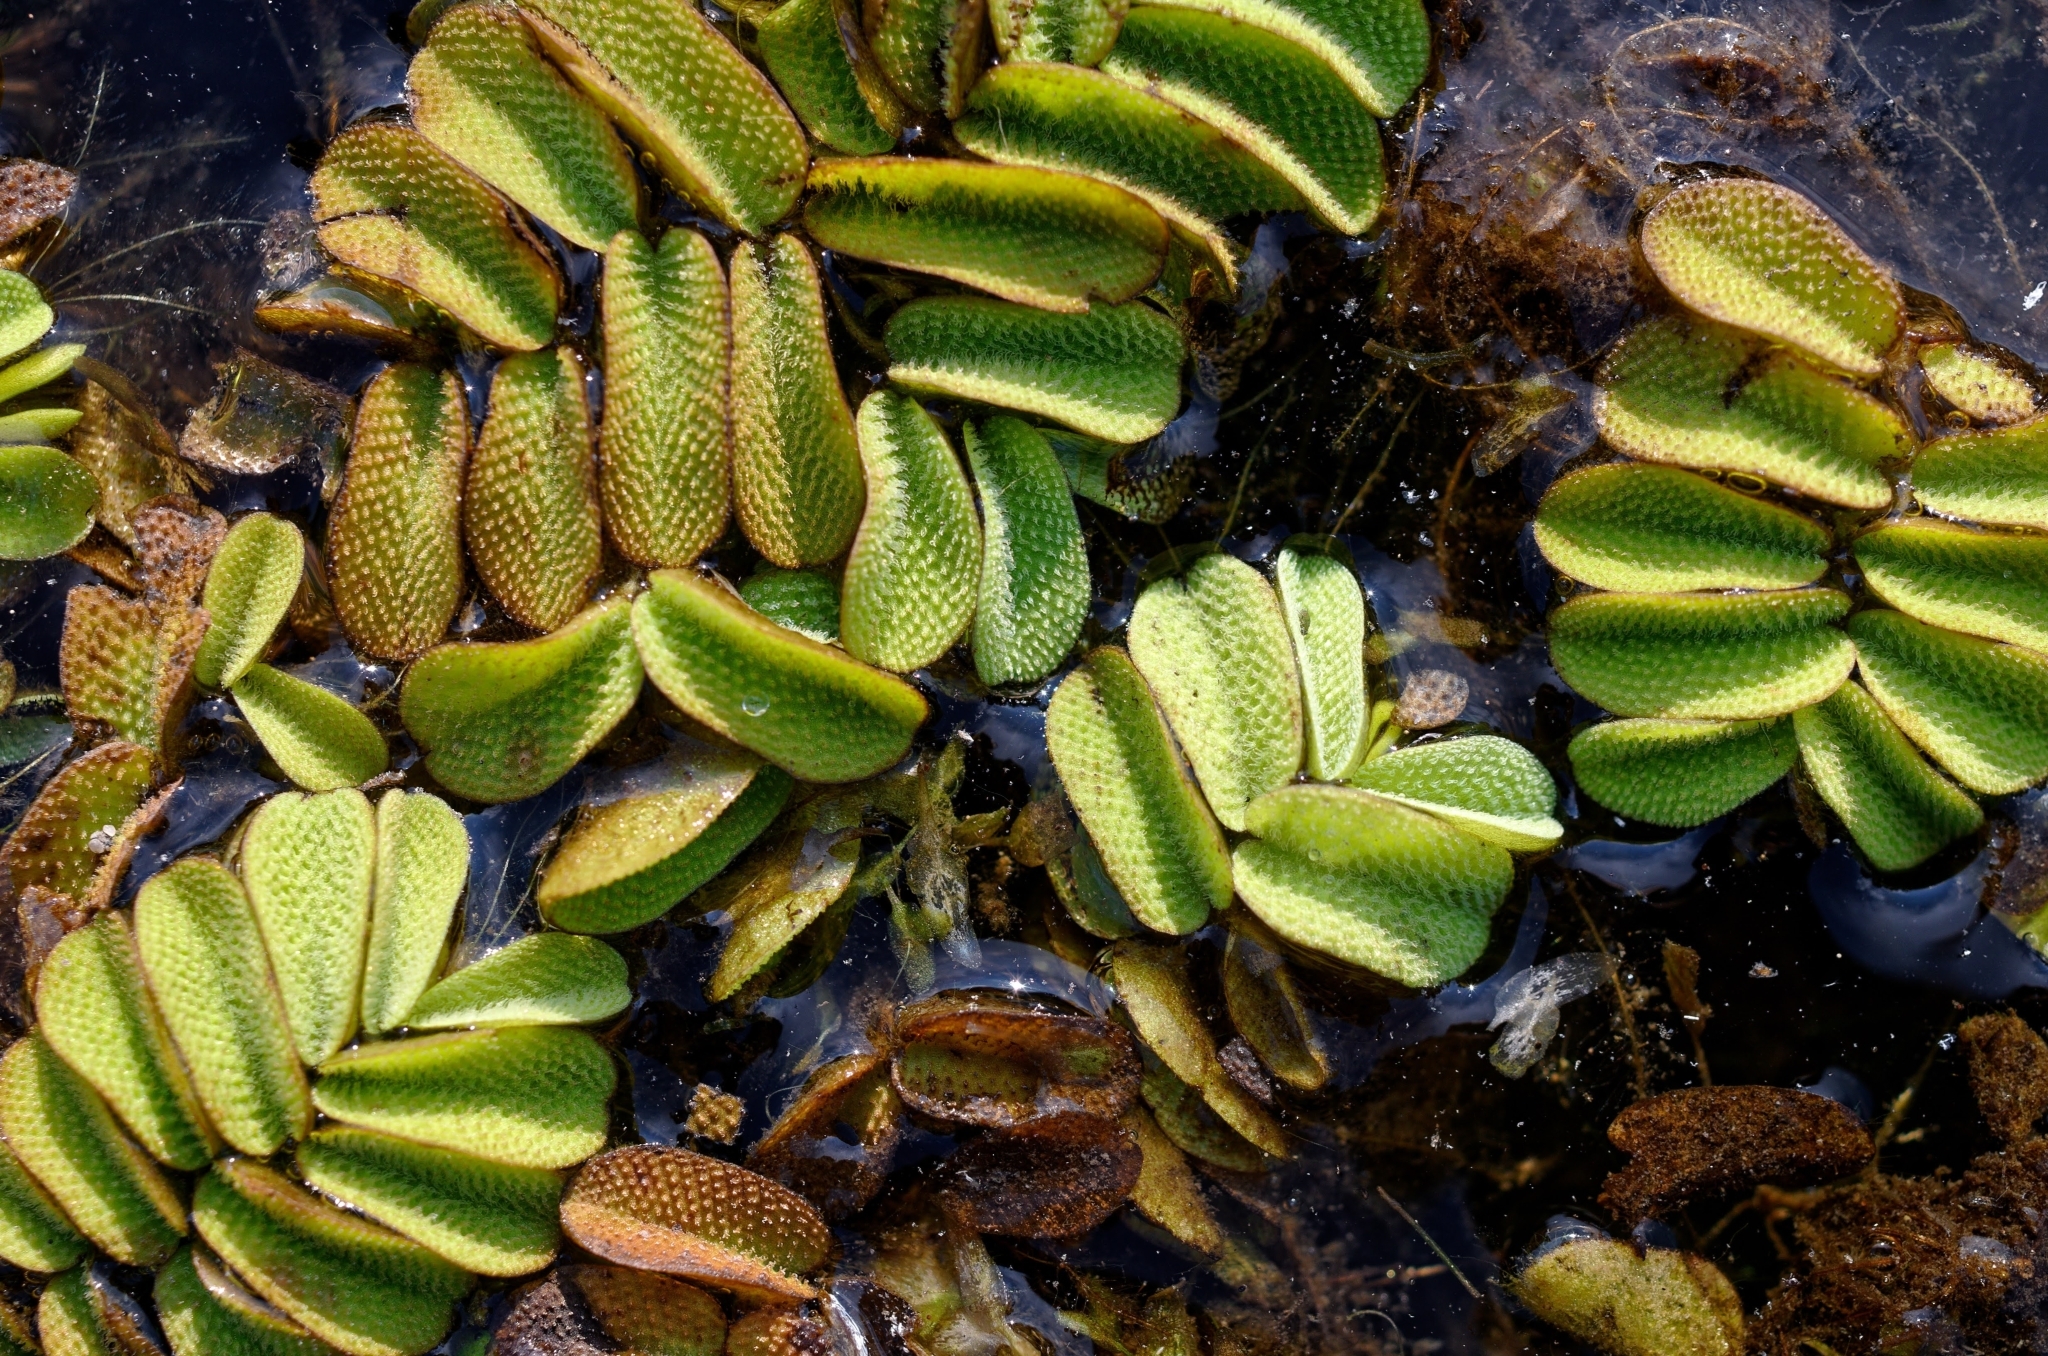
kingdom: Plantae
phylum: Tracheophyta
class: Polypodiopsida
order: Salviniales
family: Salviniaceae
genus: Salvinia
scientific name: Salvinia natans
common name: Floating fern
